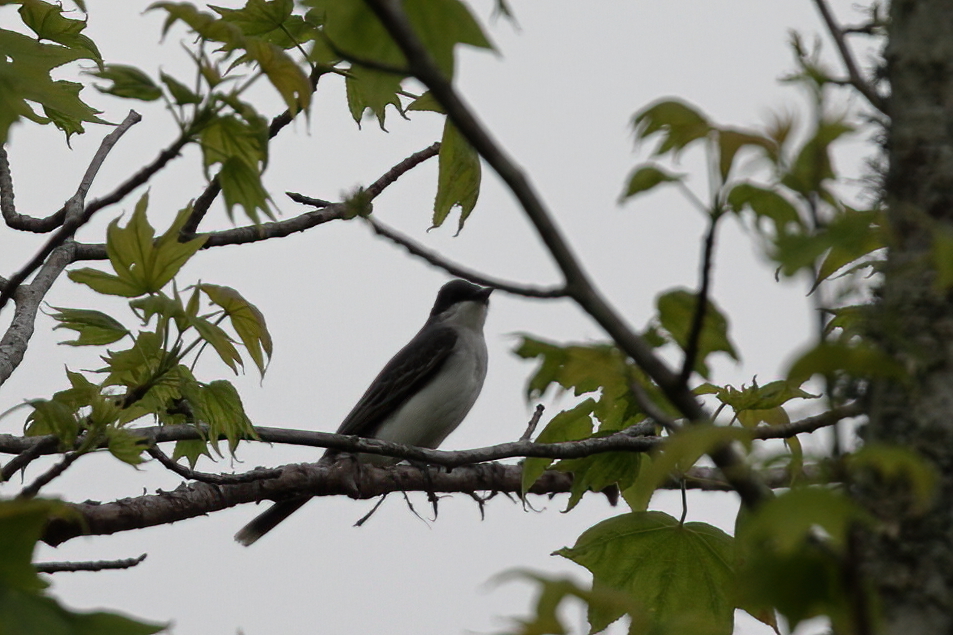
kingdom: Animalia
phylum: Chordata
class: Aves
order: Passeriformes
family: Tyrannidae
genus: Tyrannus
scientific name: Tyrannus tyrannus
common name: Eastern kingbird
